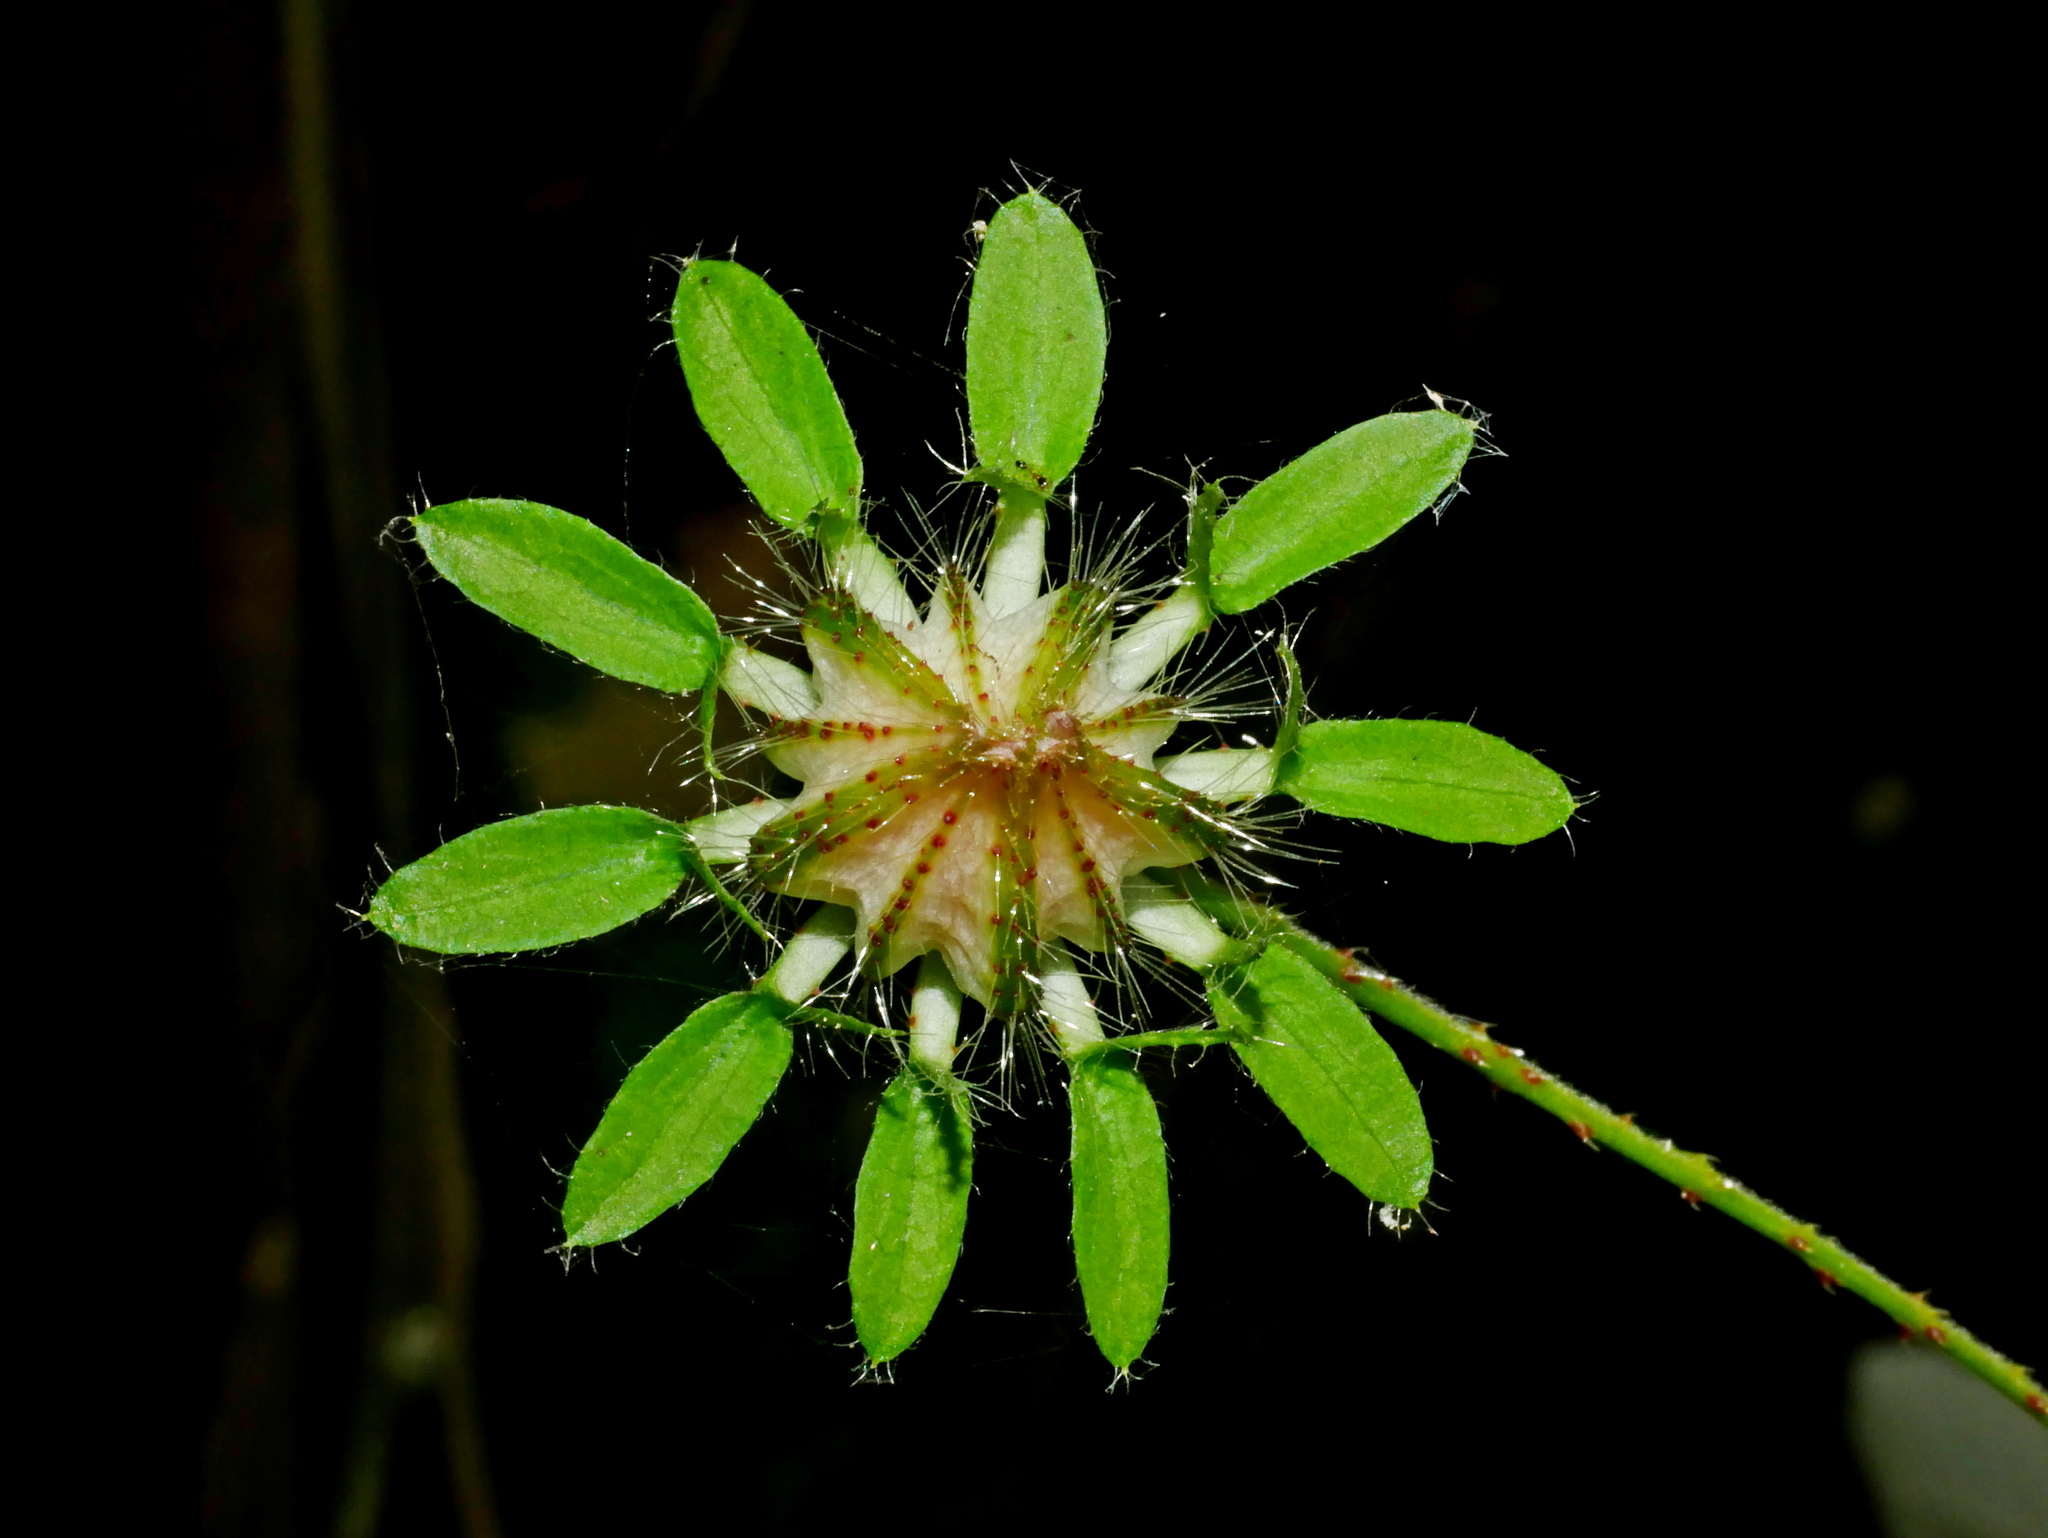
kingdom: Plantae
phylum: Tracheophyta
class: Magnoliopsida
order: Malvales
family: Malvaceae
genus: Hibiscus
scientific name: Hibiscus surattensis
